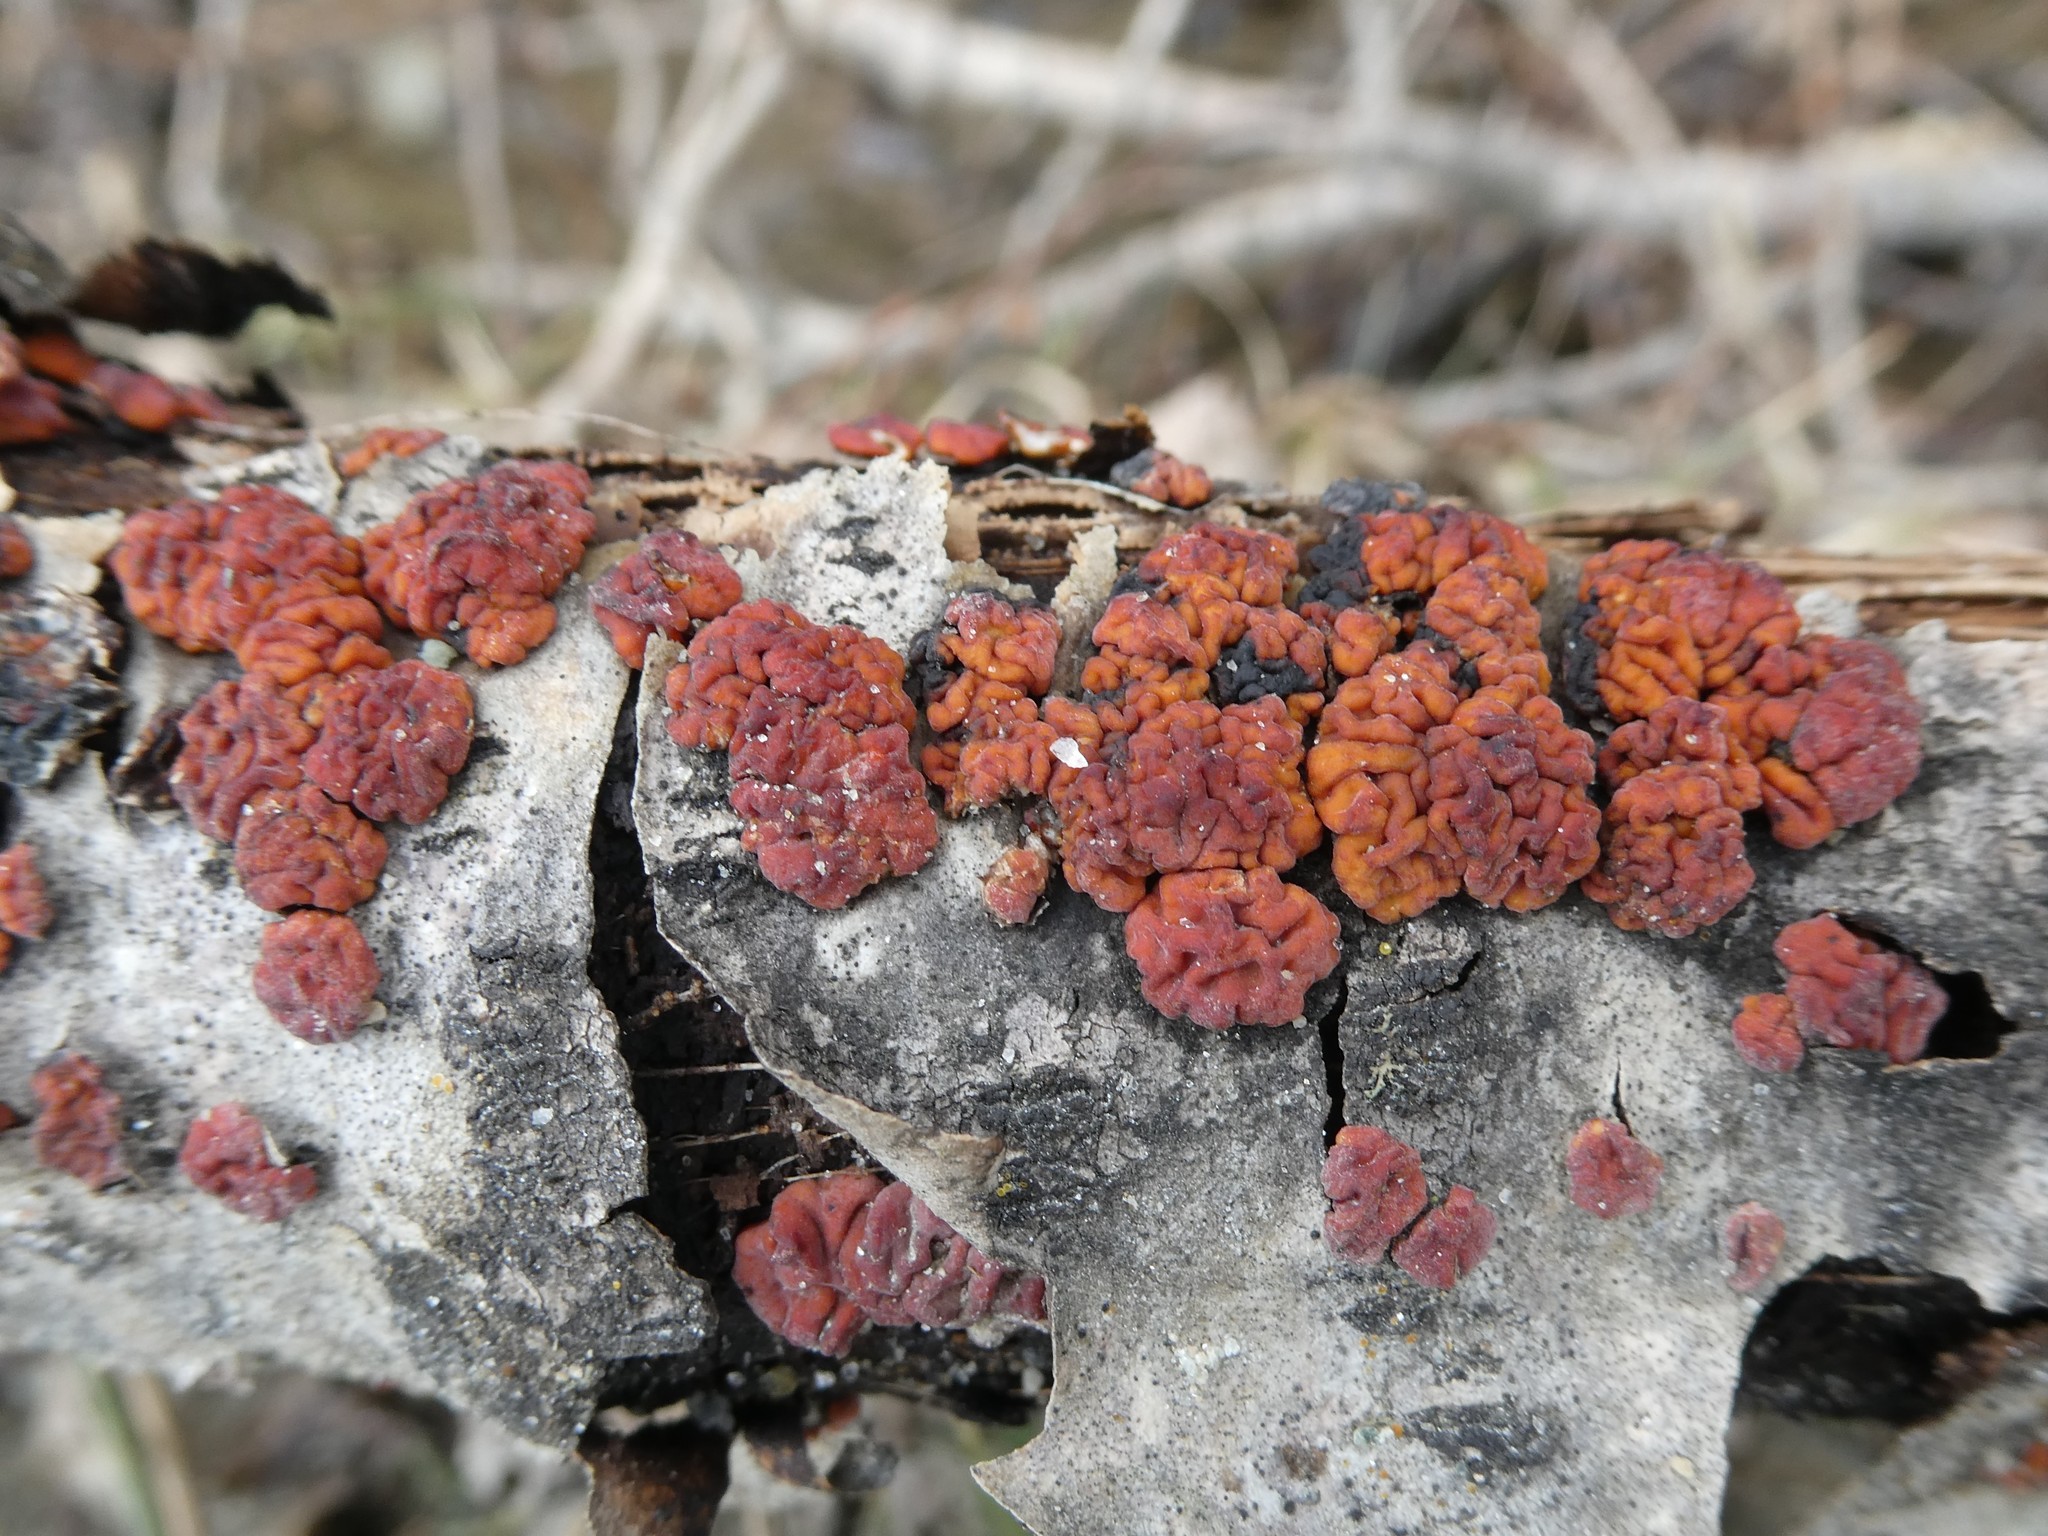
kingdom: Fungi
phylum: Basidiomycota
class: Agaricomycetes
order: Russulales
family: Peniophoraceae
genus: Peniophora
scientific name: Peniophora rufa
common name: Red tree brain fungus
